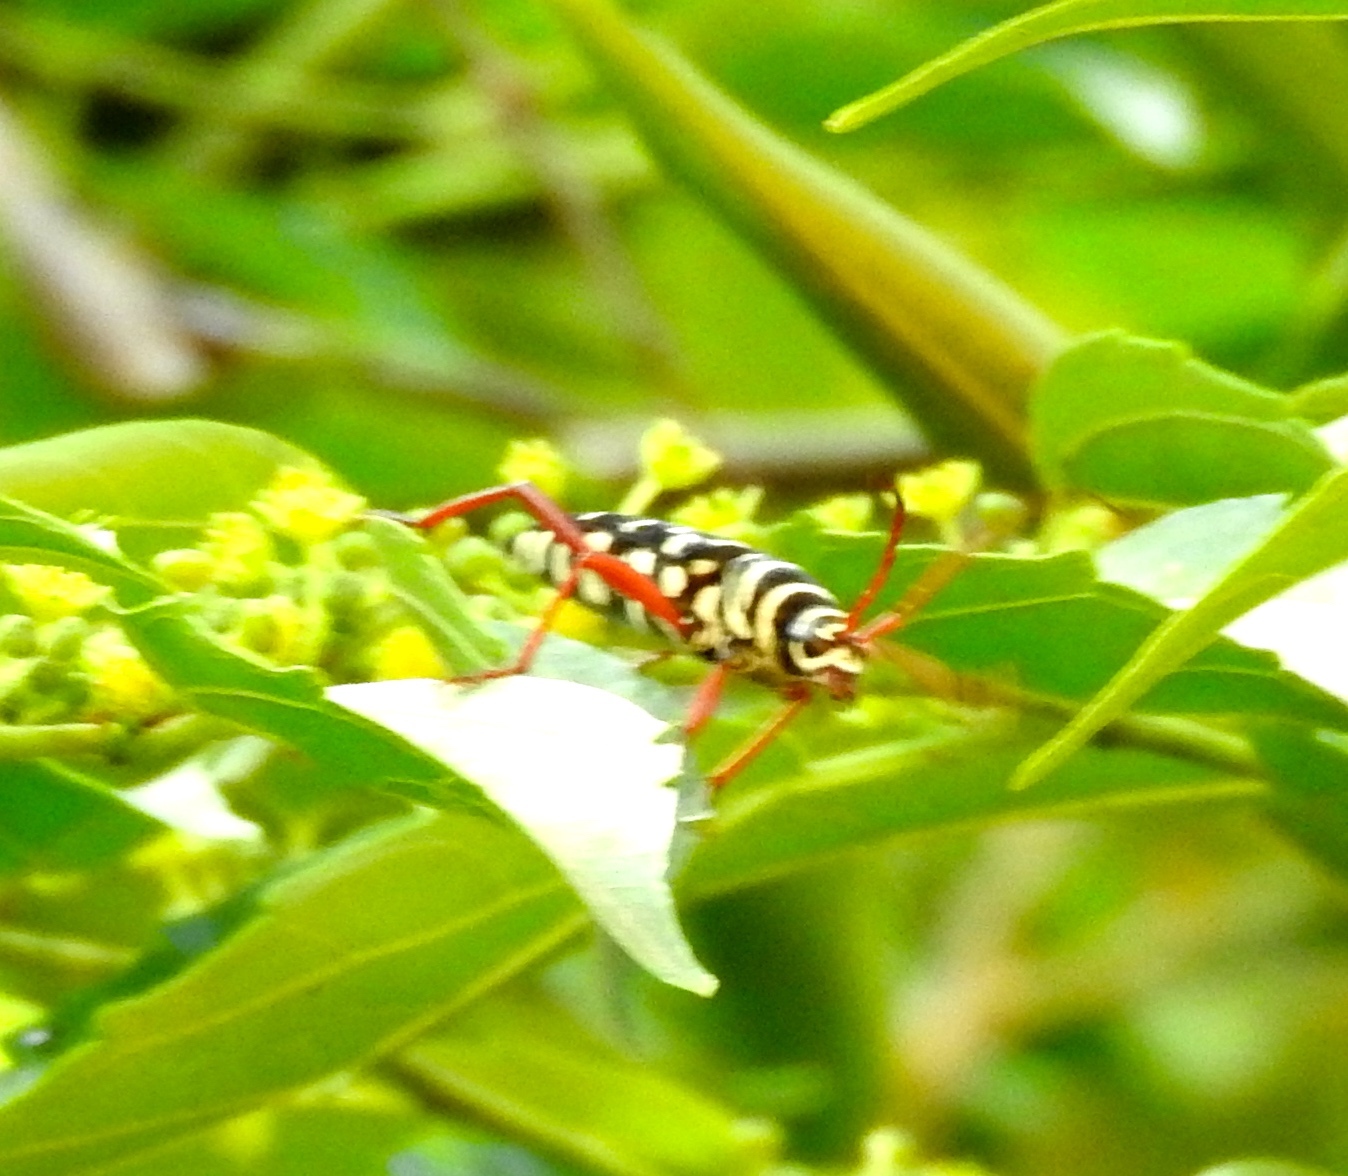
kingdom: Animalia
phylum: Arthropoda
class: Insecta
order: Coleoptera
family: Cerambycidae
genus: Placosternus
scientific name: Placosternus
